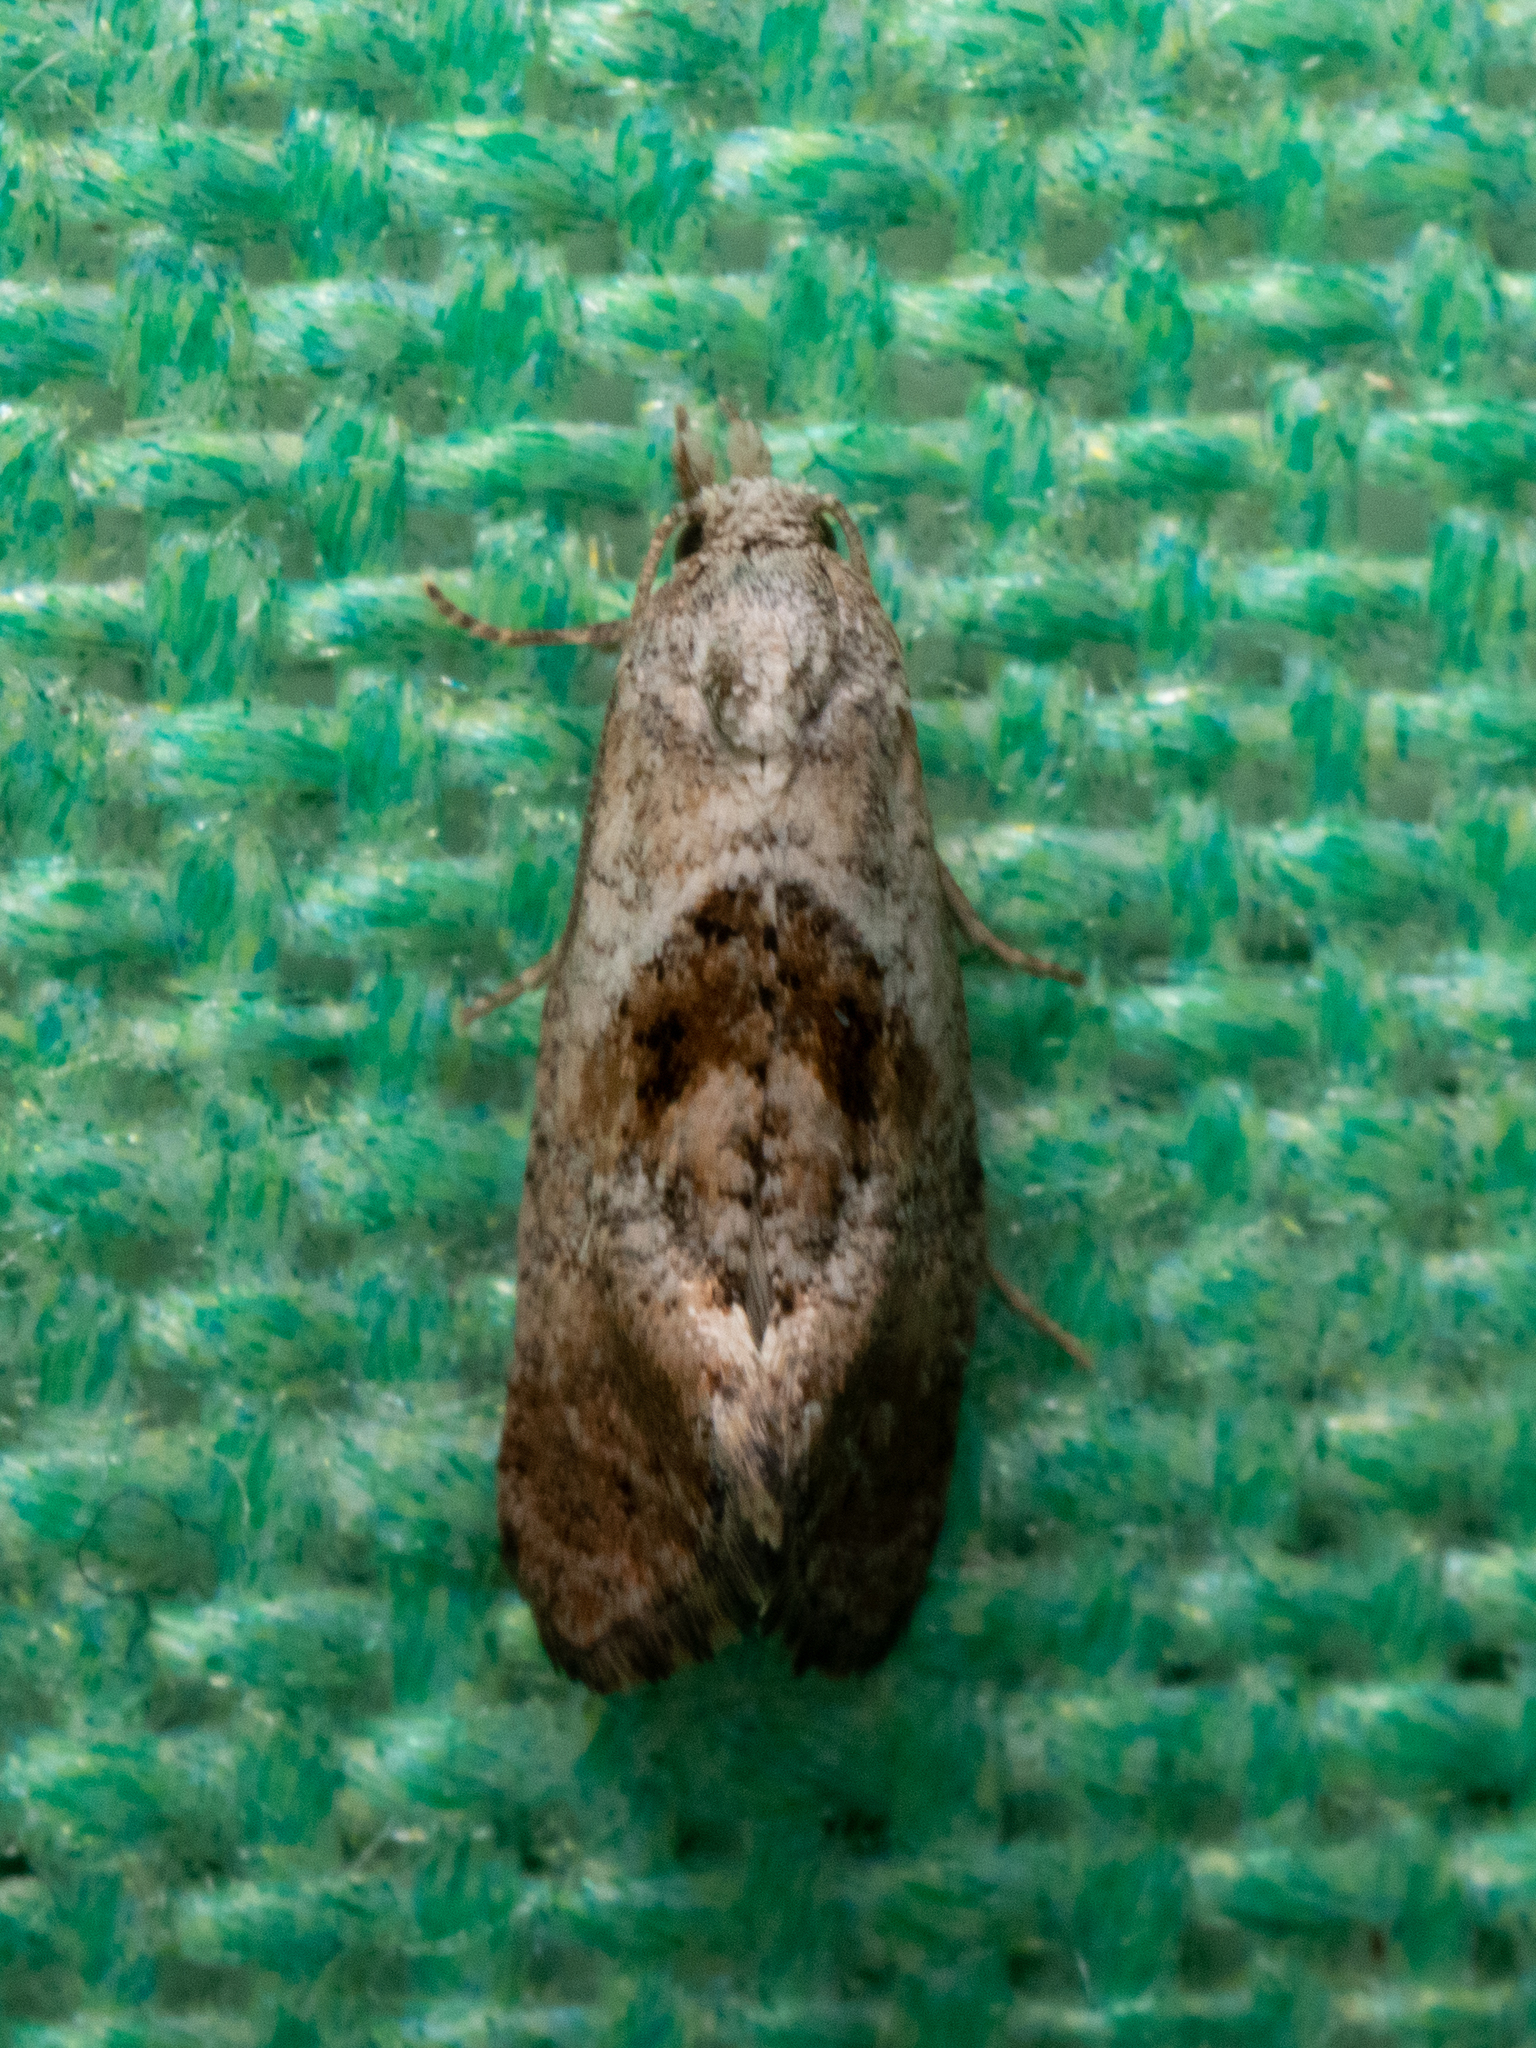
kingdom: Animalia
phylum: Arthropoda
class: Insecta
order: Lepidoptera
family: Tortricidae
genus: Cochylis
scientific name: Cochylis Cochylichroa temerana
